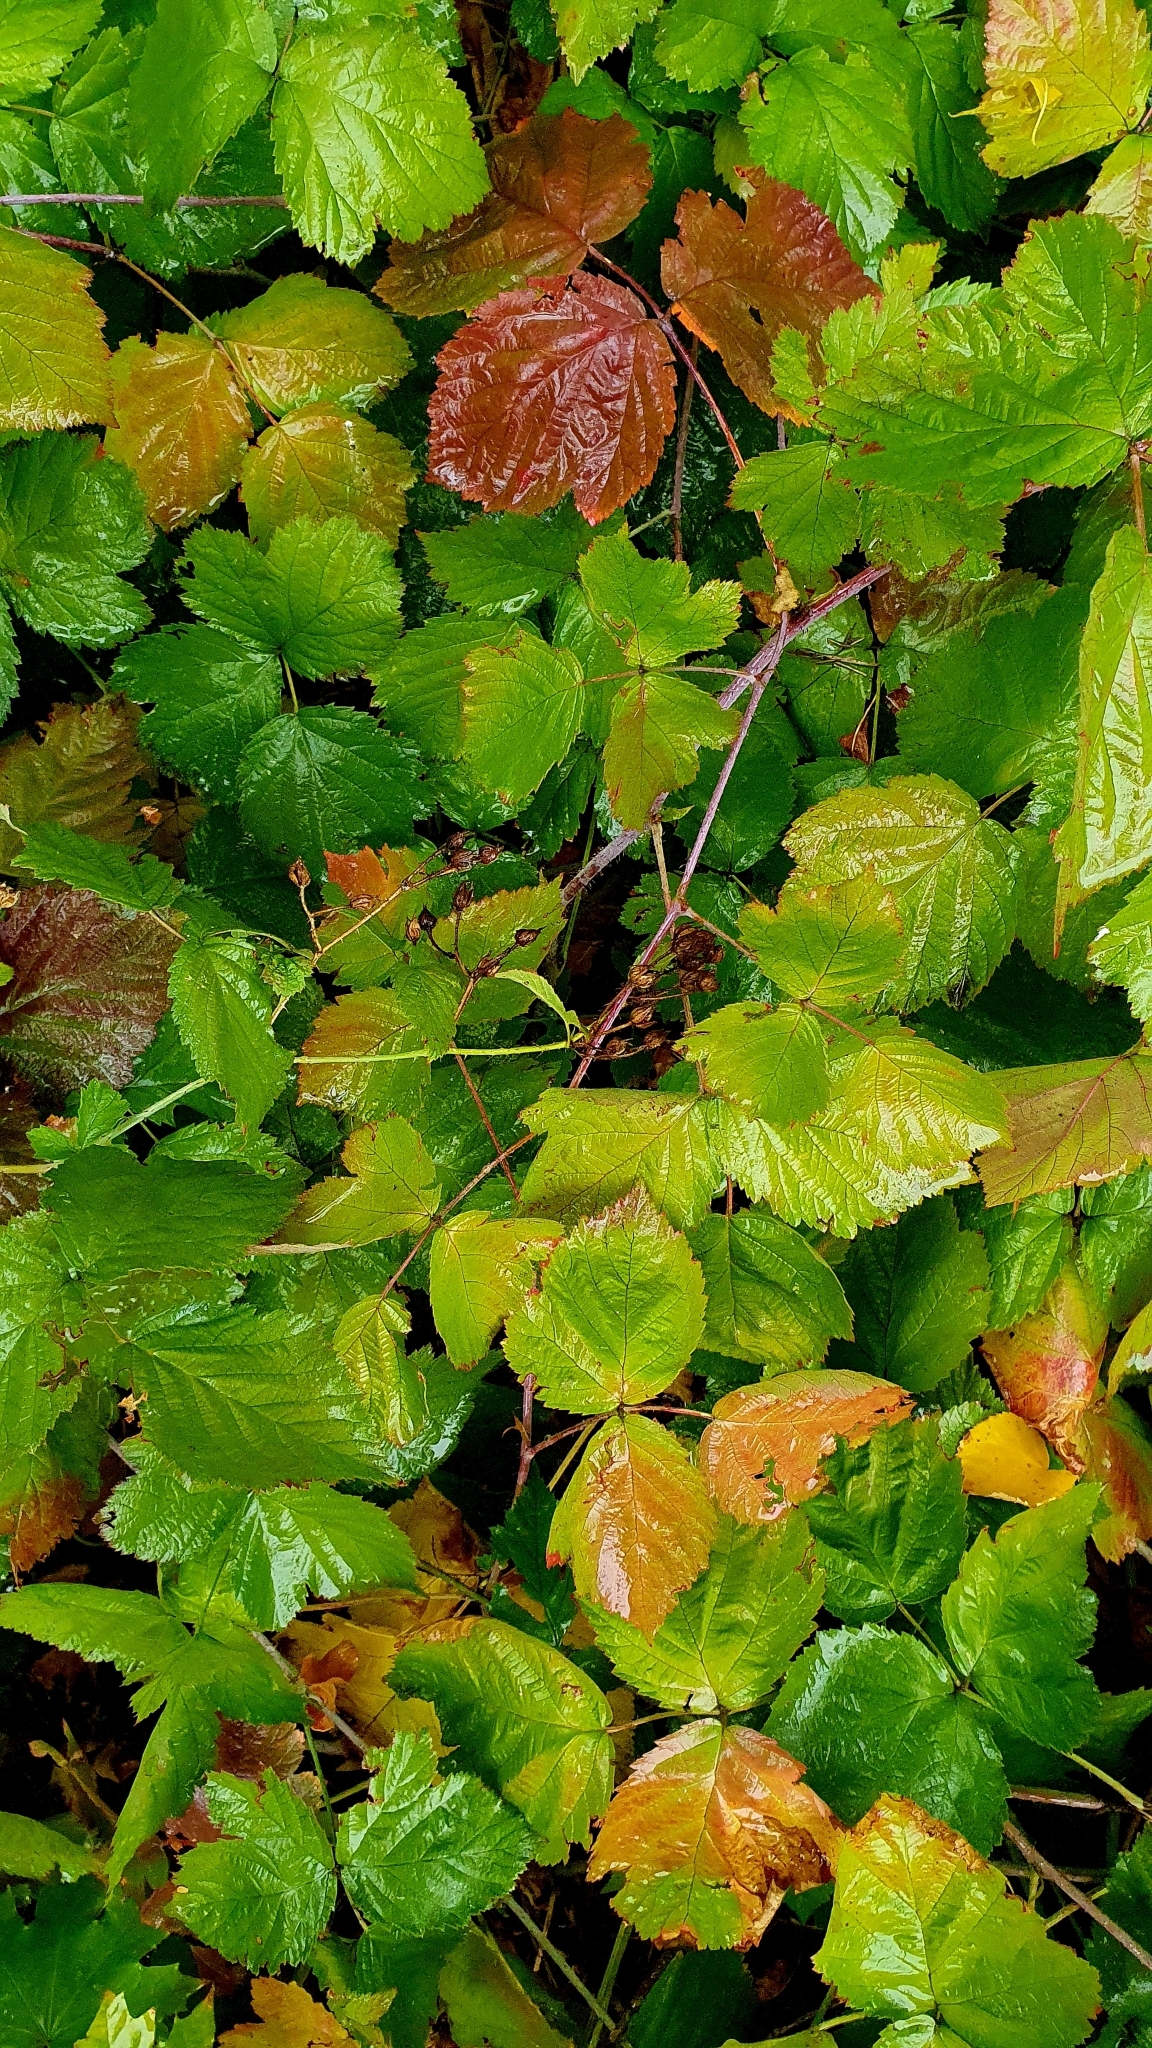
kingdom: Plantae
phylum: Tracheophyta
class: Magnoliopsida
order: Rosales
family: Rosaceae
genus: Rubus
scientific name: Rubus caesius
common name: Dewberry
